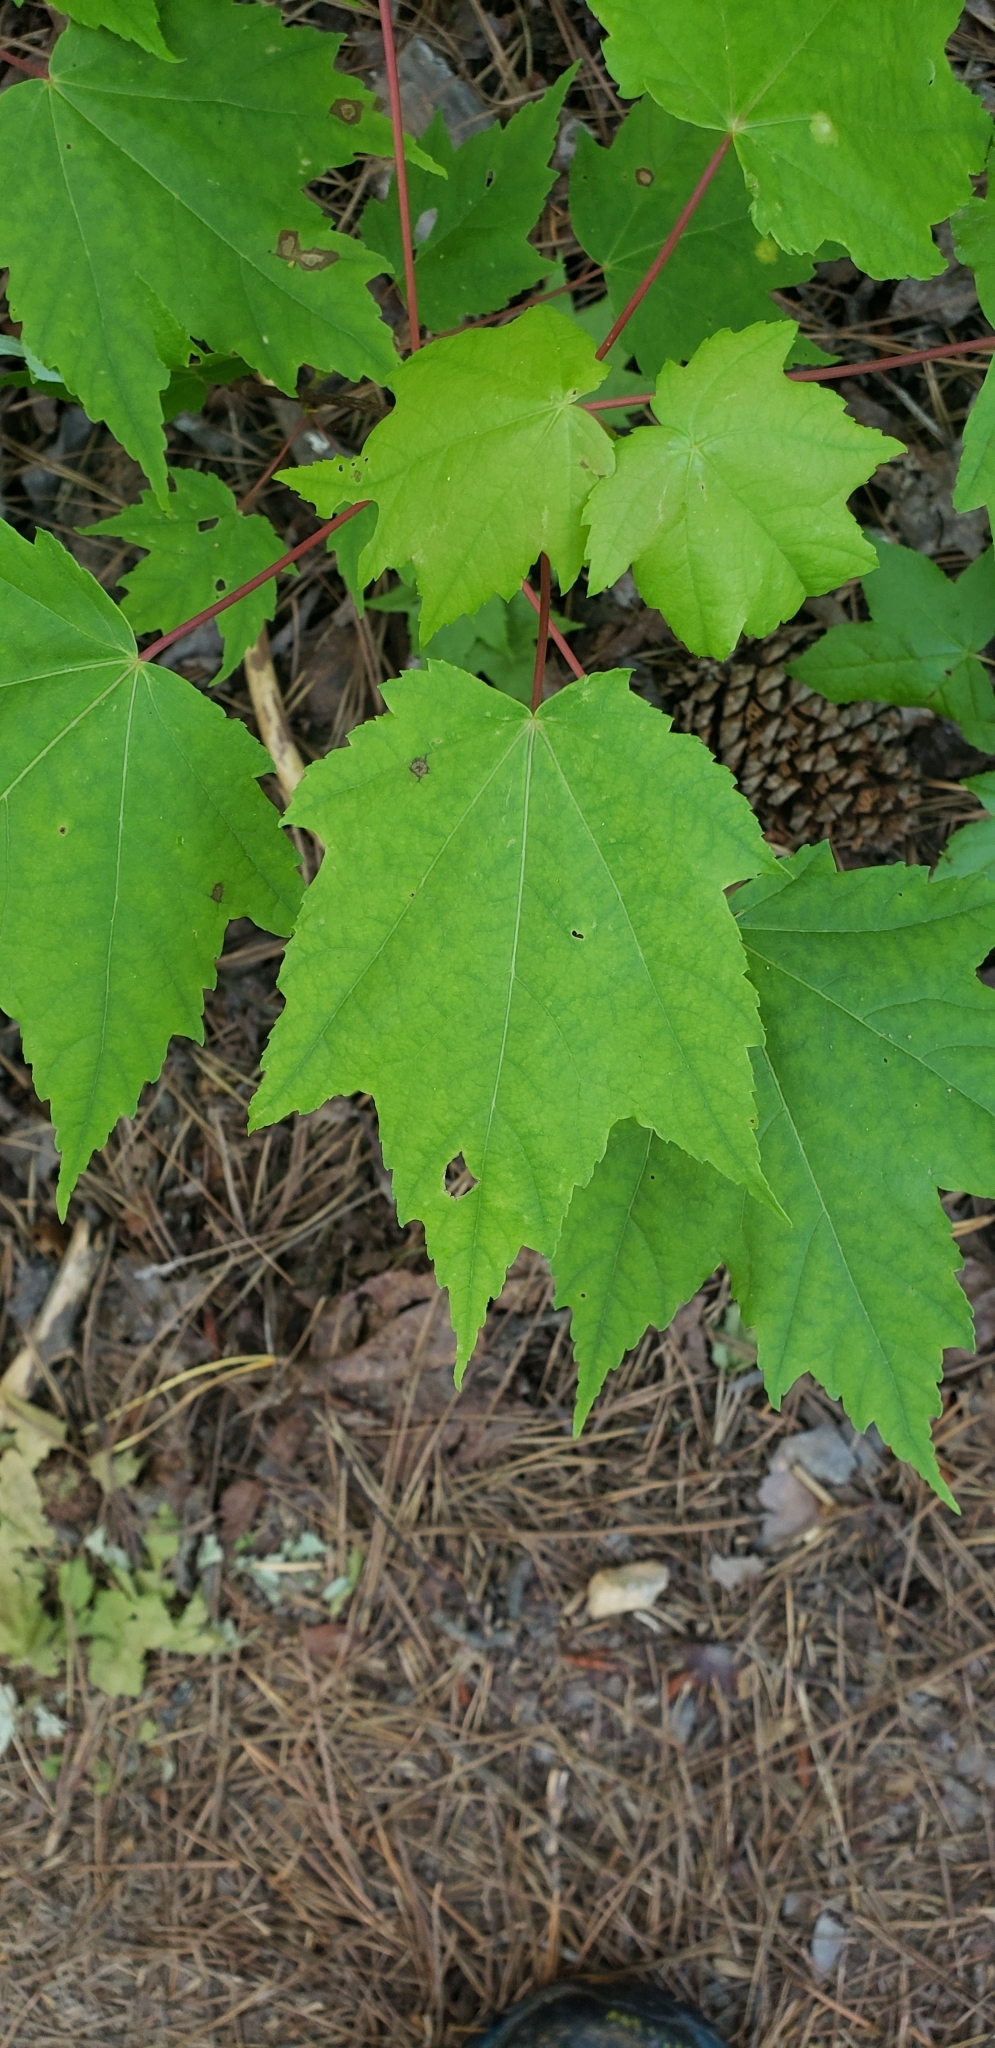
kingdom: Plantae
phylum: Tracheophyta
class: Magnoliopsida
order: Sapindales
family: Sapindaceae
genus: Acer
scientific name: Acer rubrum
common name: Red maple
